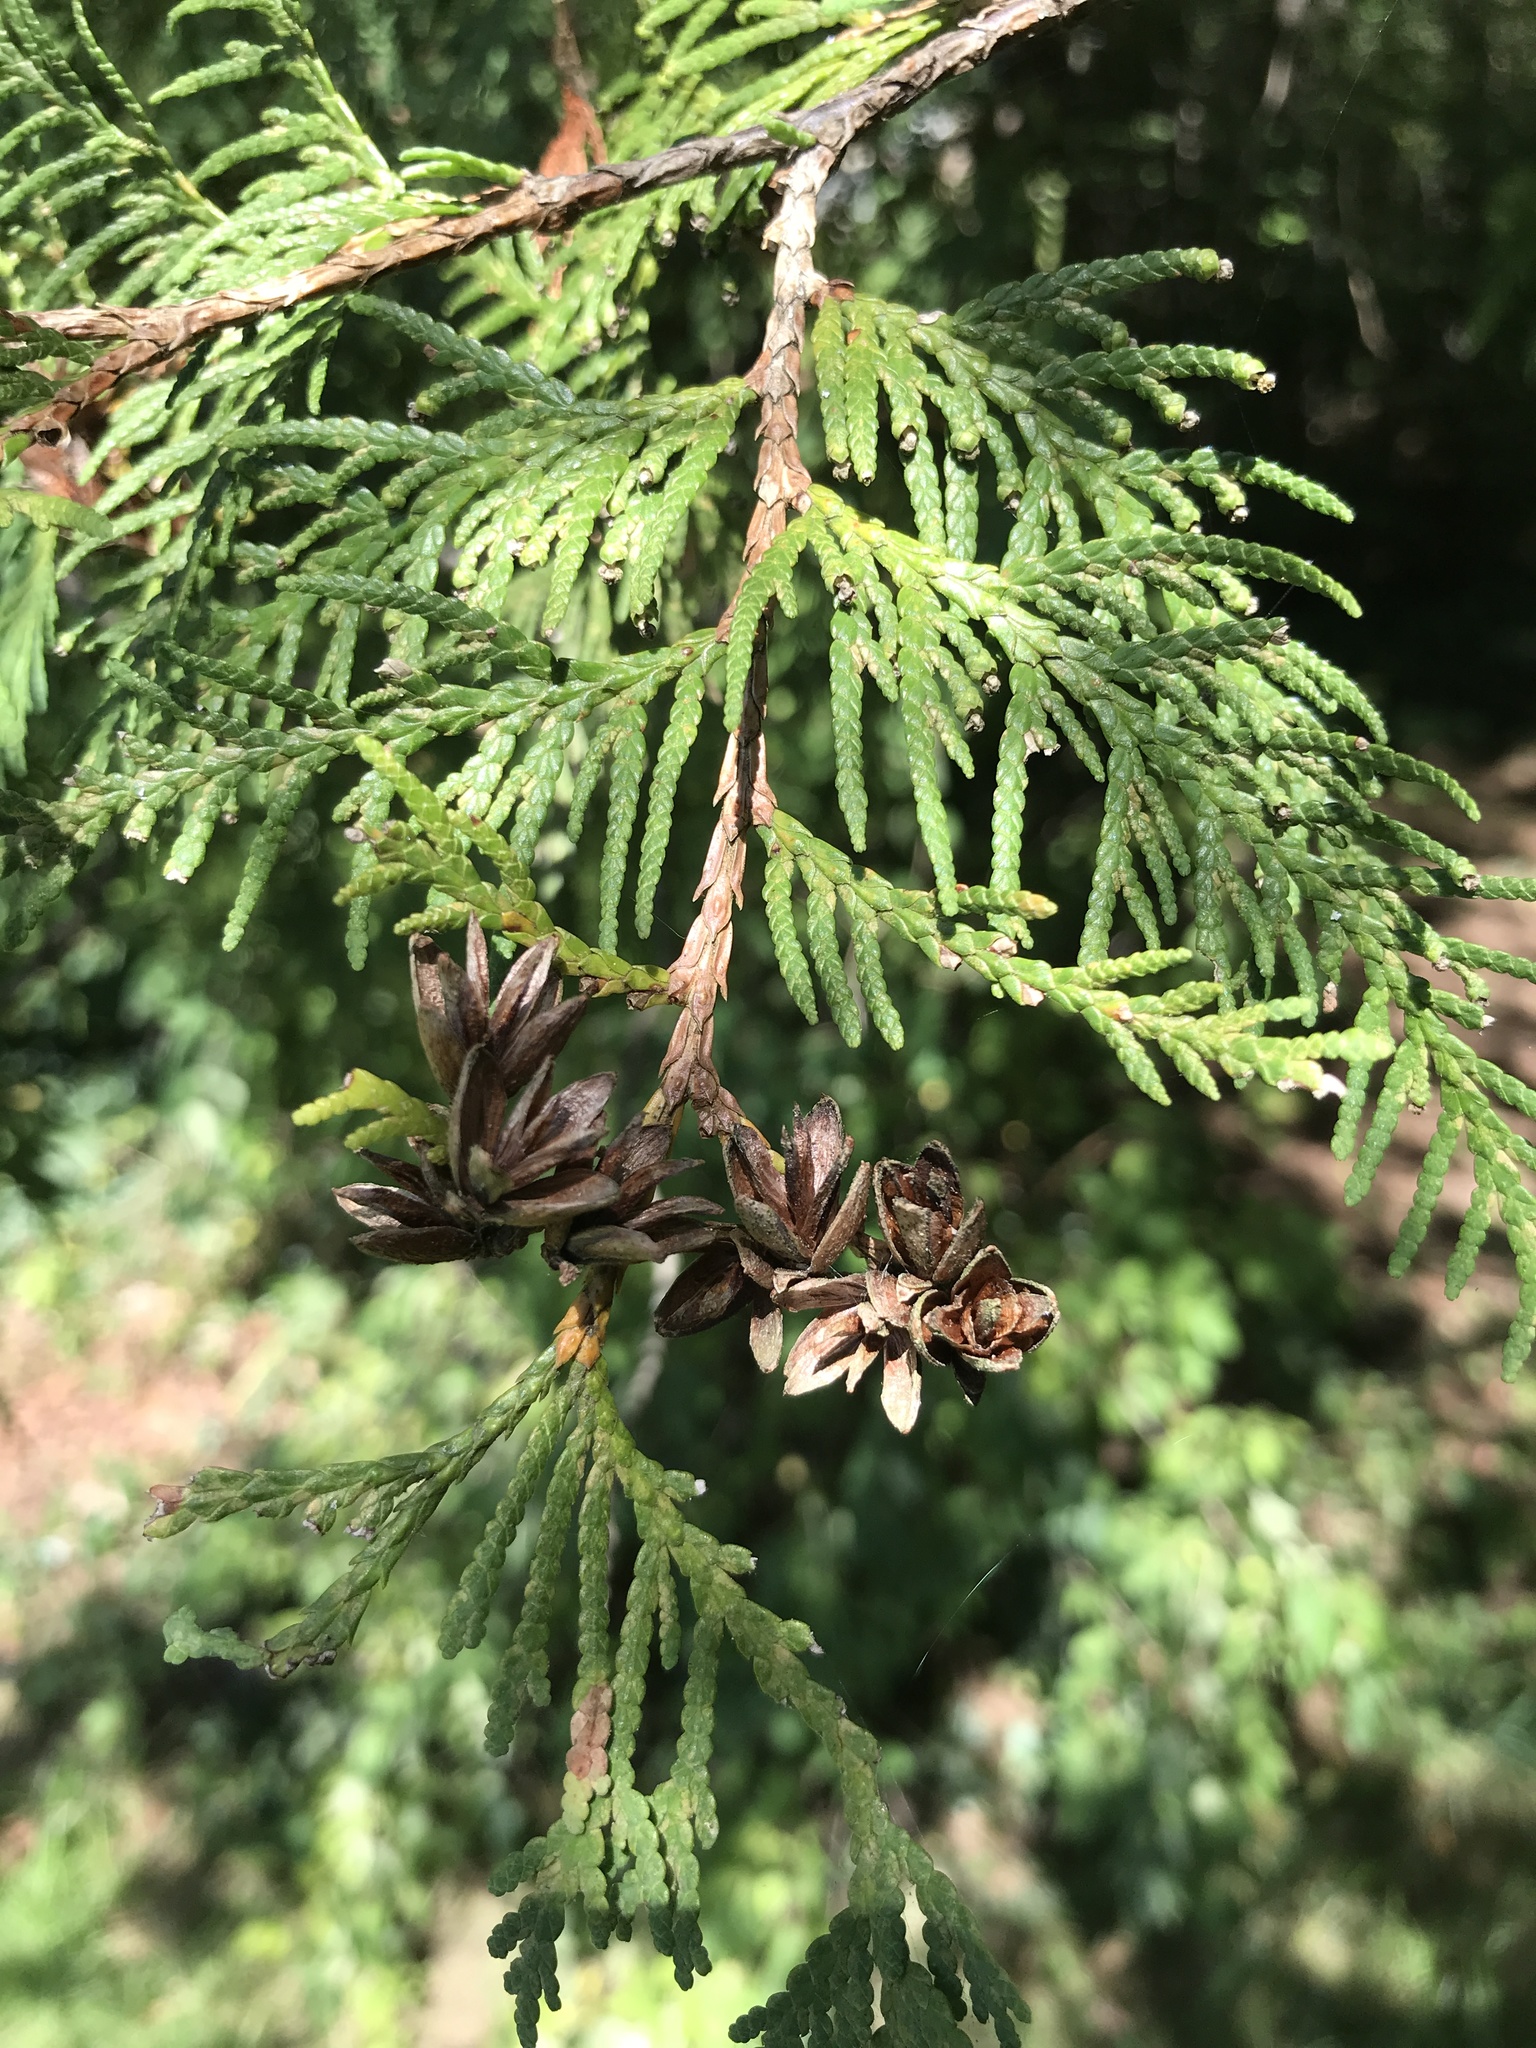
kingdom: Plantae
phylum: Tracheophyta
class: Pinopsida
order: Pinales
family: Cupressaceae
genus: Thuja
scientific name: Thuja occidentalis
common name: Northern white-cedar
